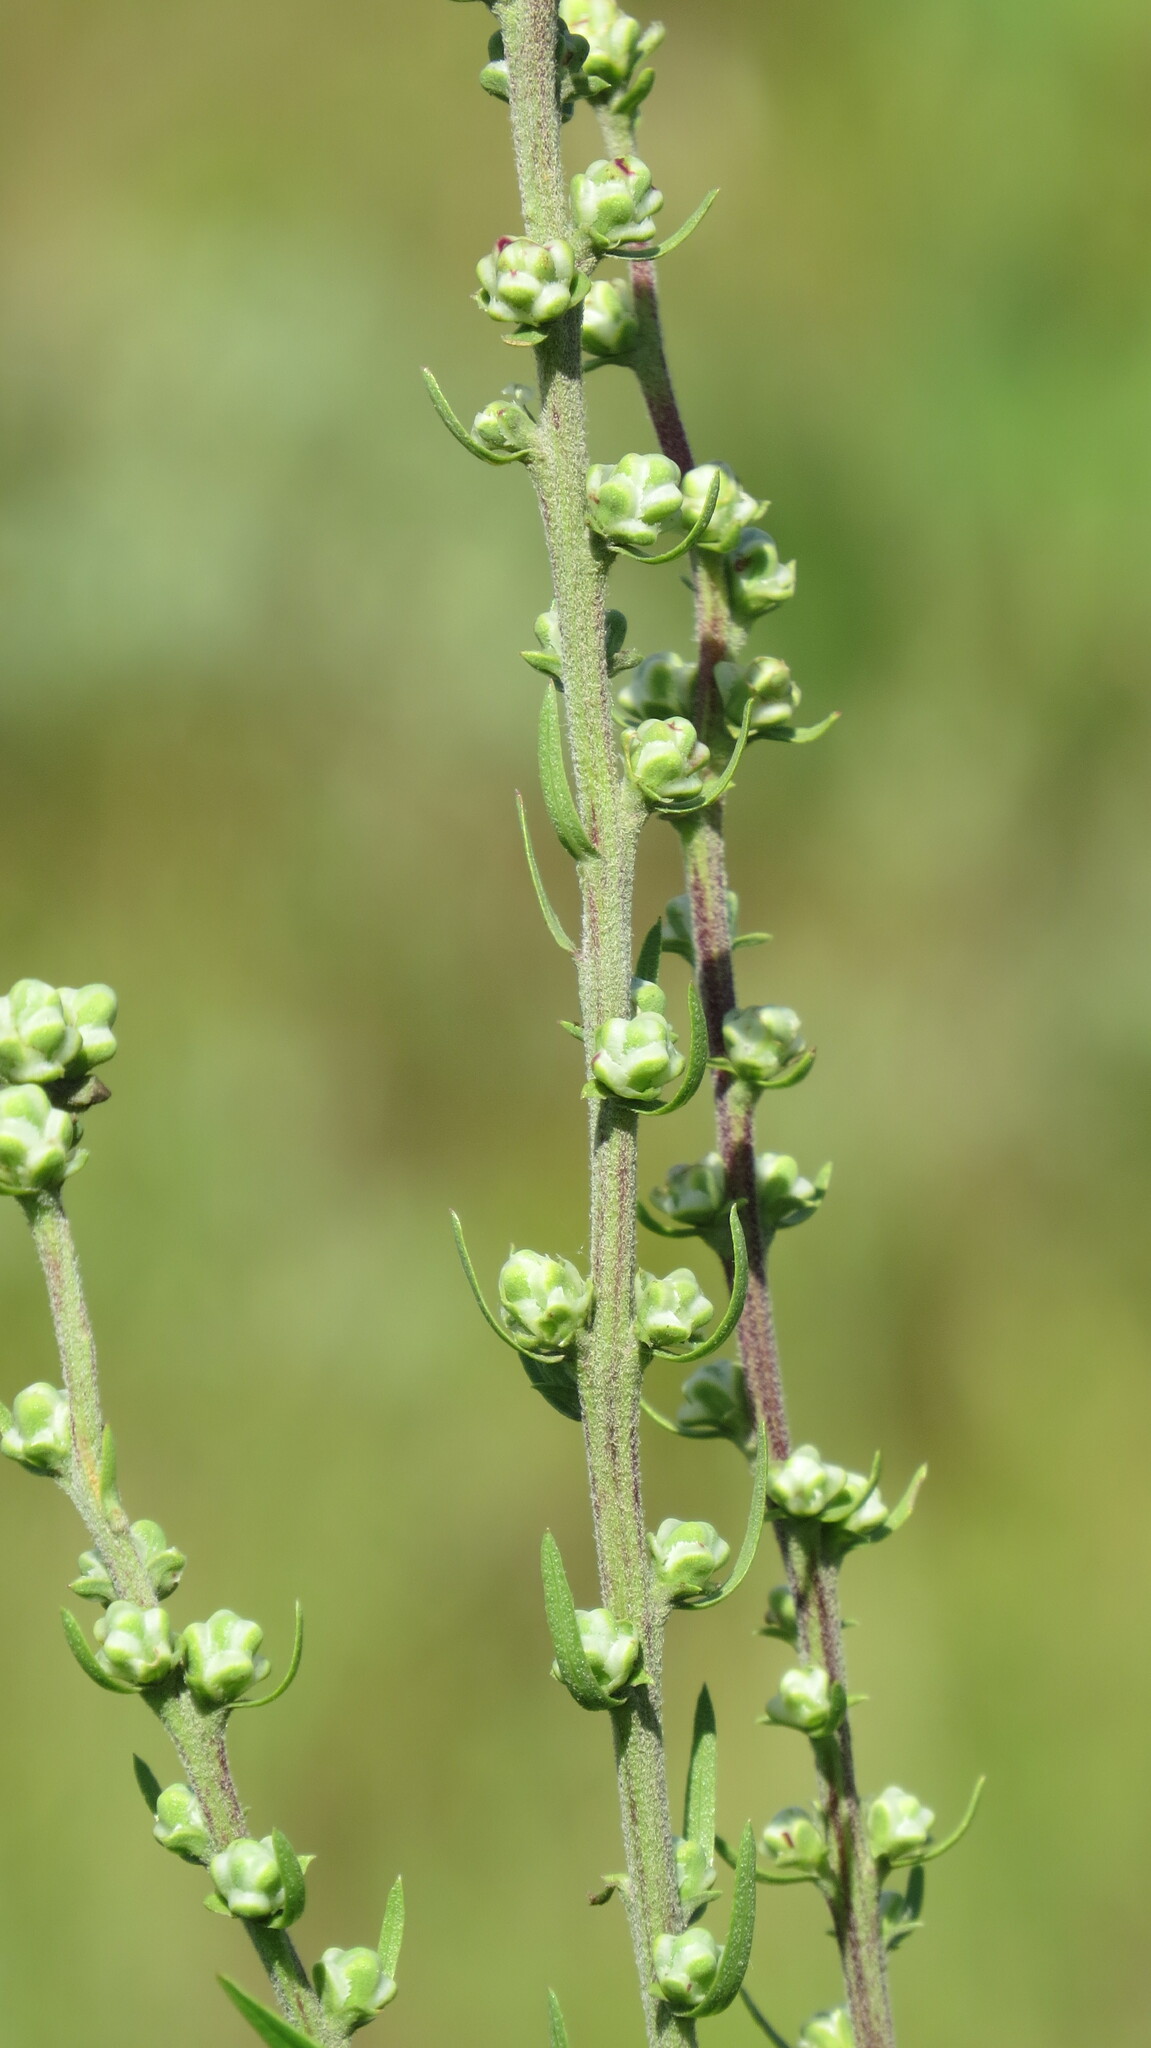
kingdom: Plantae
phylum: Tracheophyta
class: Magnoliopsida
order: Asterales
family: Asteraceae
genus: Liatris
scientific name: Liatris aspera
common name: Lacerate blazing-star
